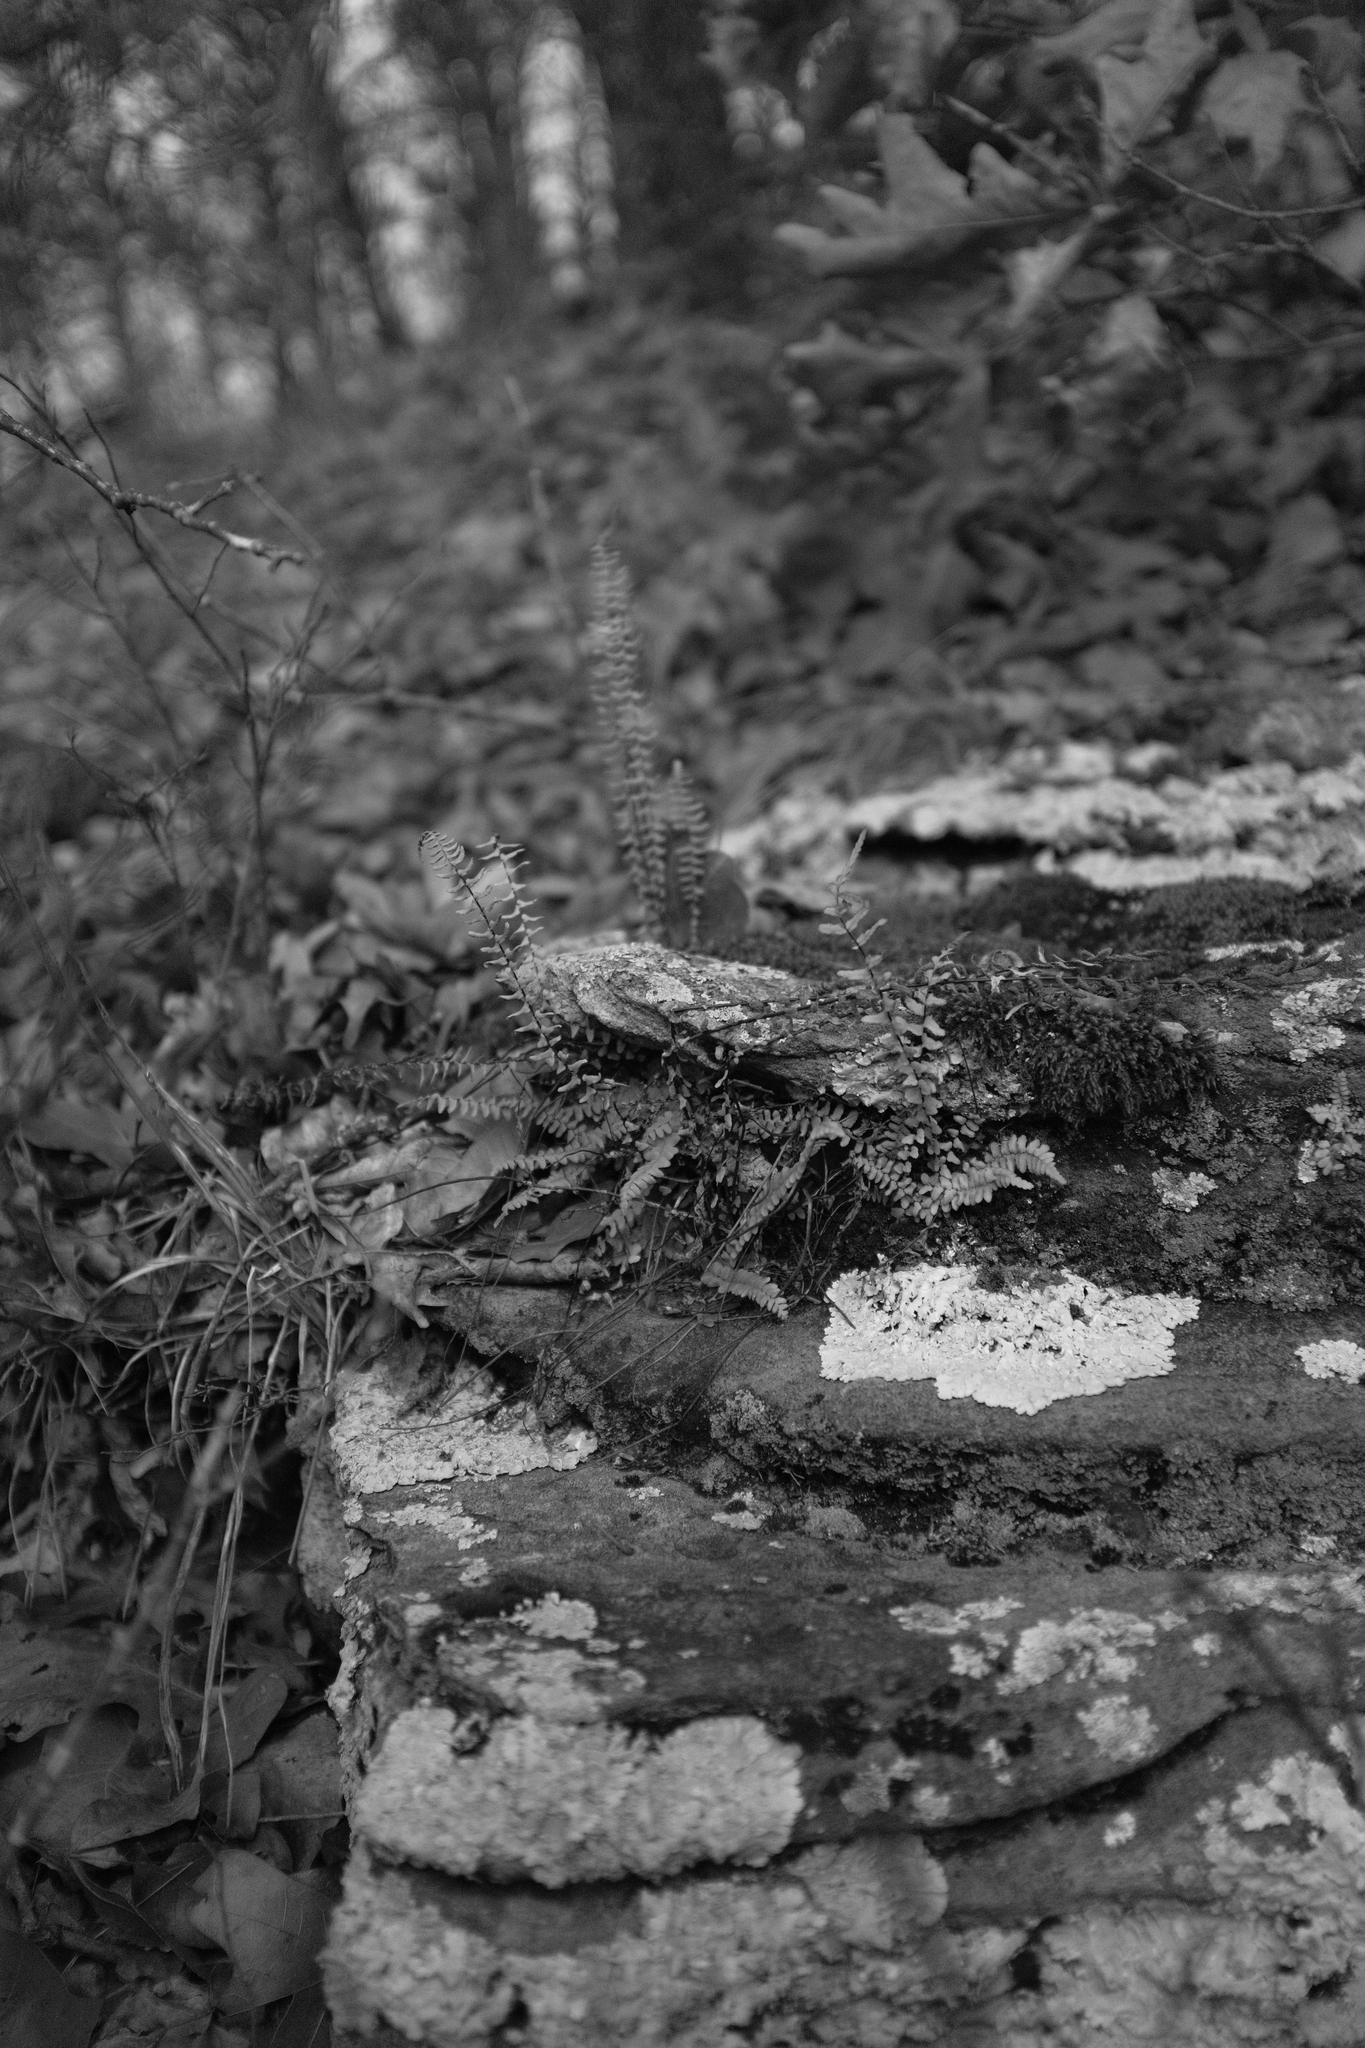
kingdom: Plantae
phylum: Tracheophyta
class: Polypodiopsida
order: Polypodiales
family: Aspleniaceae
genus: Asplenium
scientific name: Asplenium platyneuron
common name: Ebony spleenwort
